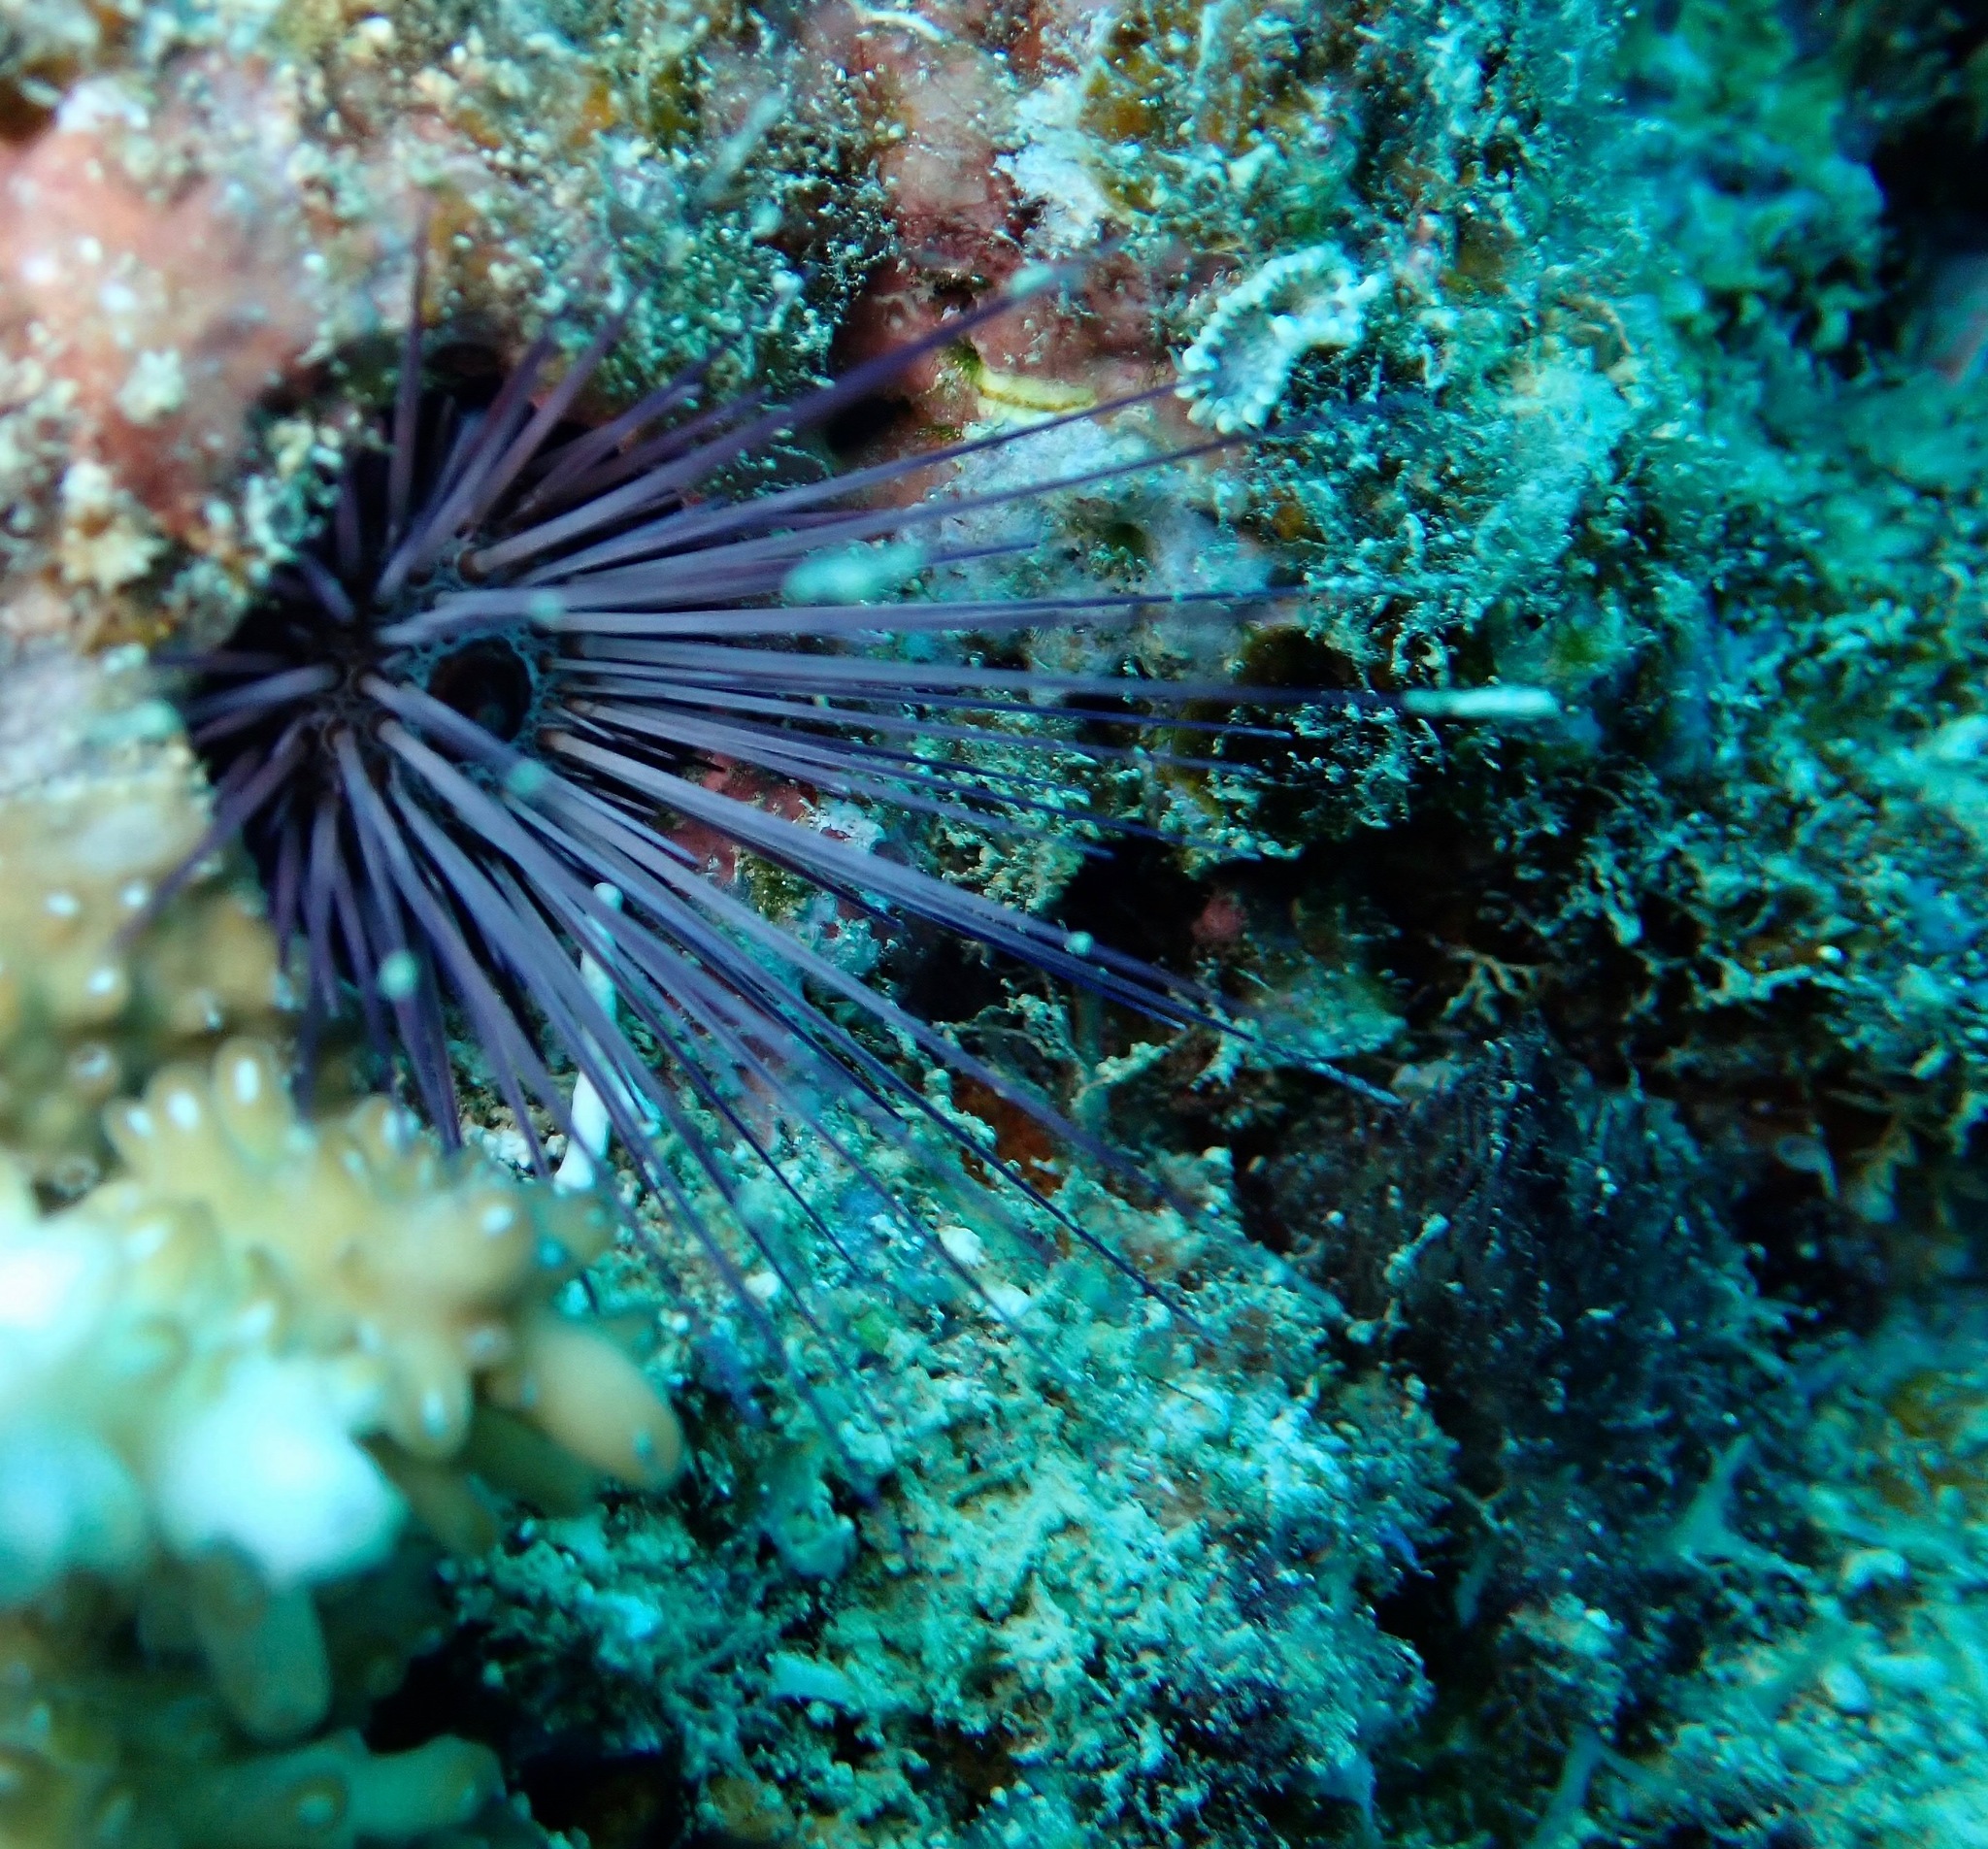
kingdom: Animalia
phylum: Echinodermata
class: Echinoidea
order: Camarodonta
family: Echinometridae
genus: Echinostrephus
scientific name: Echinostrephus molaris
